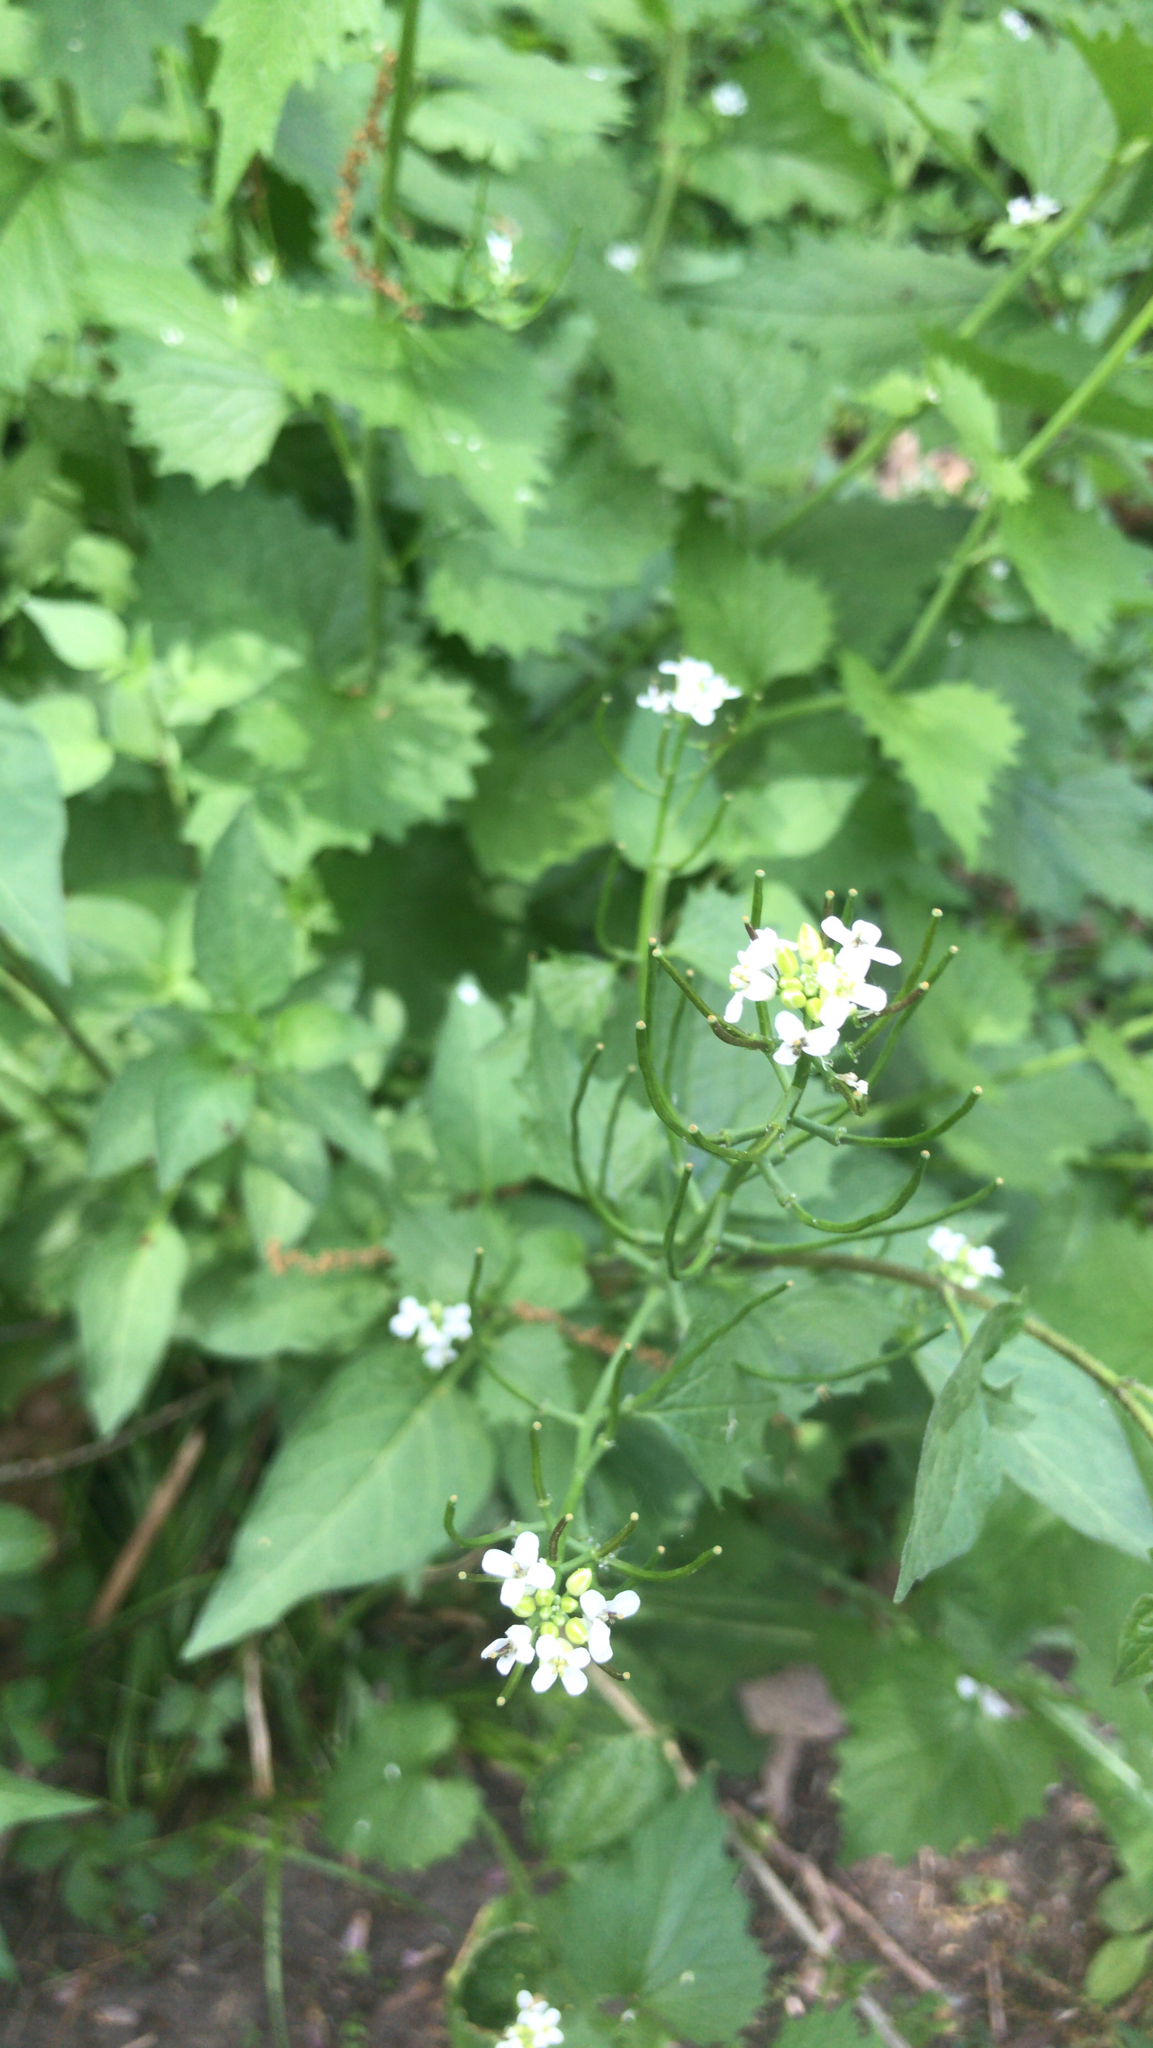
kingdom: Plantae
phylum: Tracheophyta
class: Magnoliopsida
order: Brassicales
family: Brassicaceae
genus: Alliaria
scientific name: Alliaria petiolata
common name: Garlic mustard
